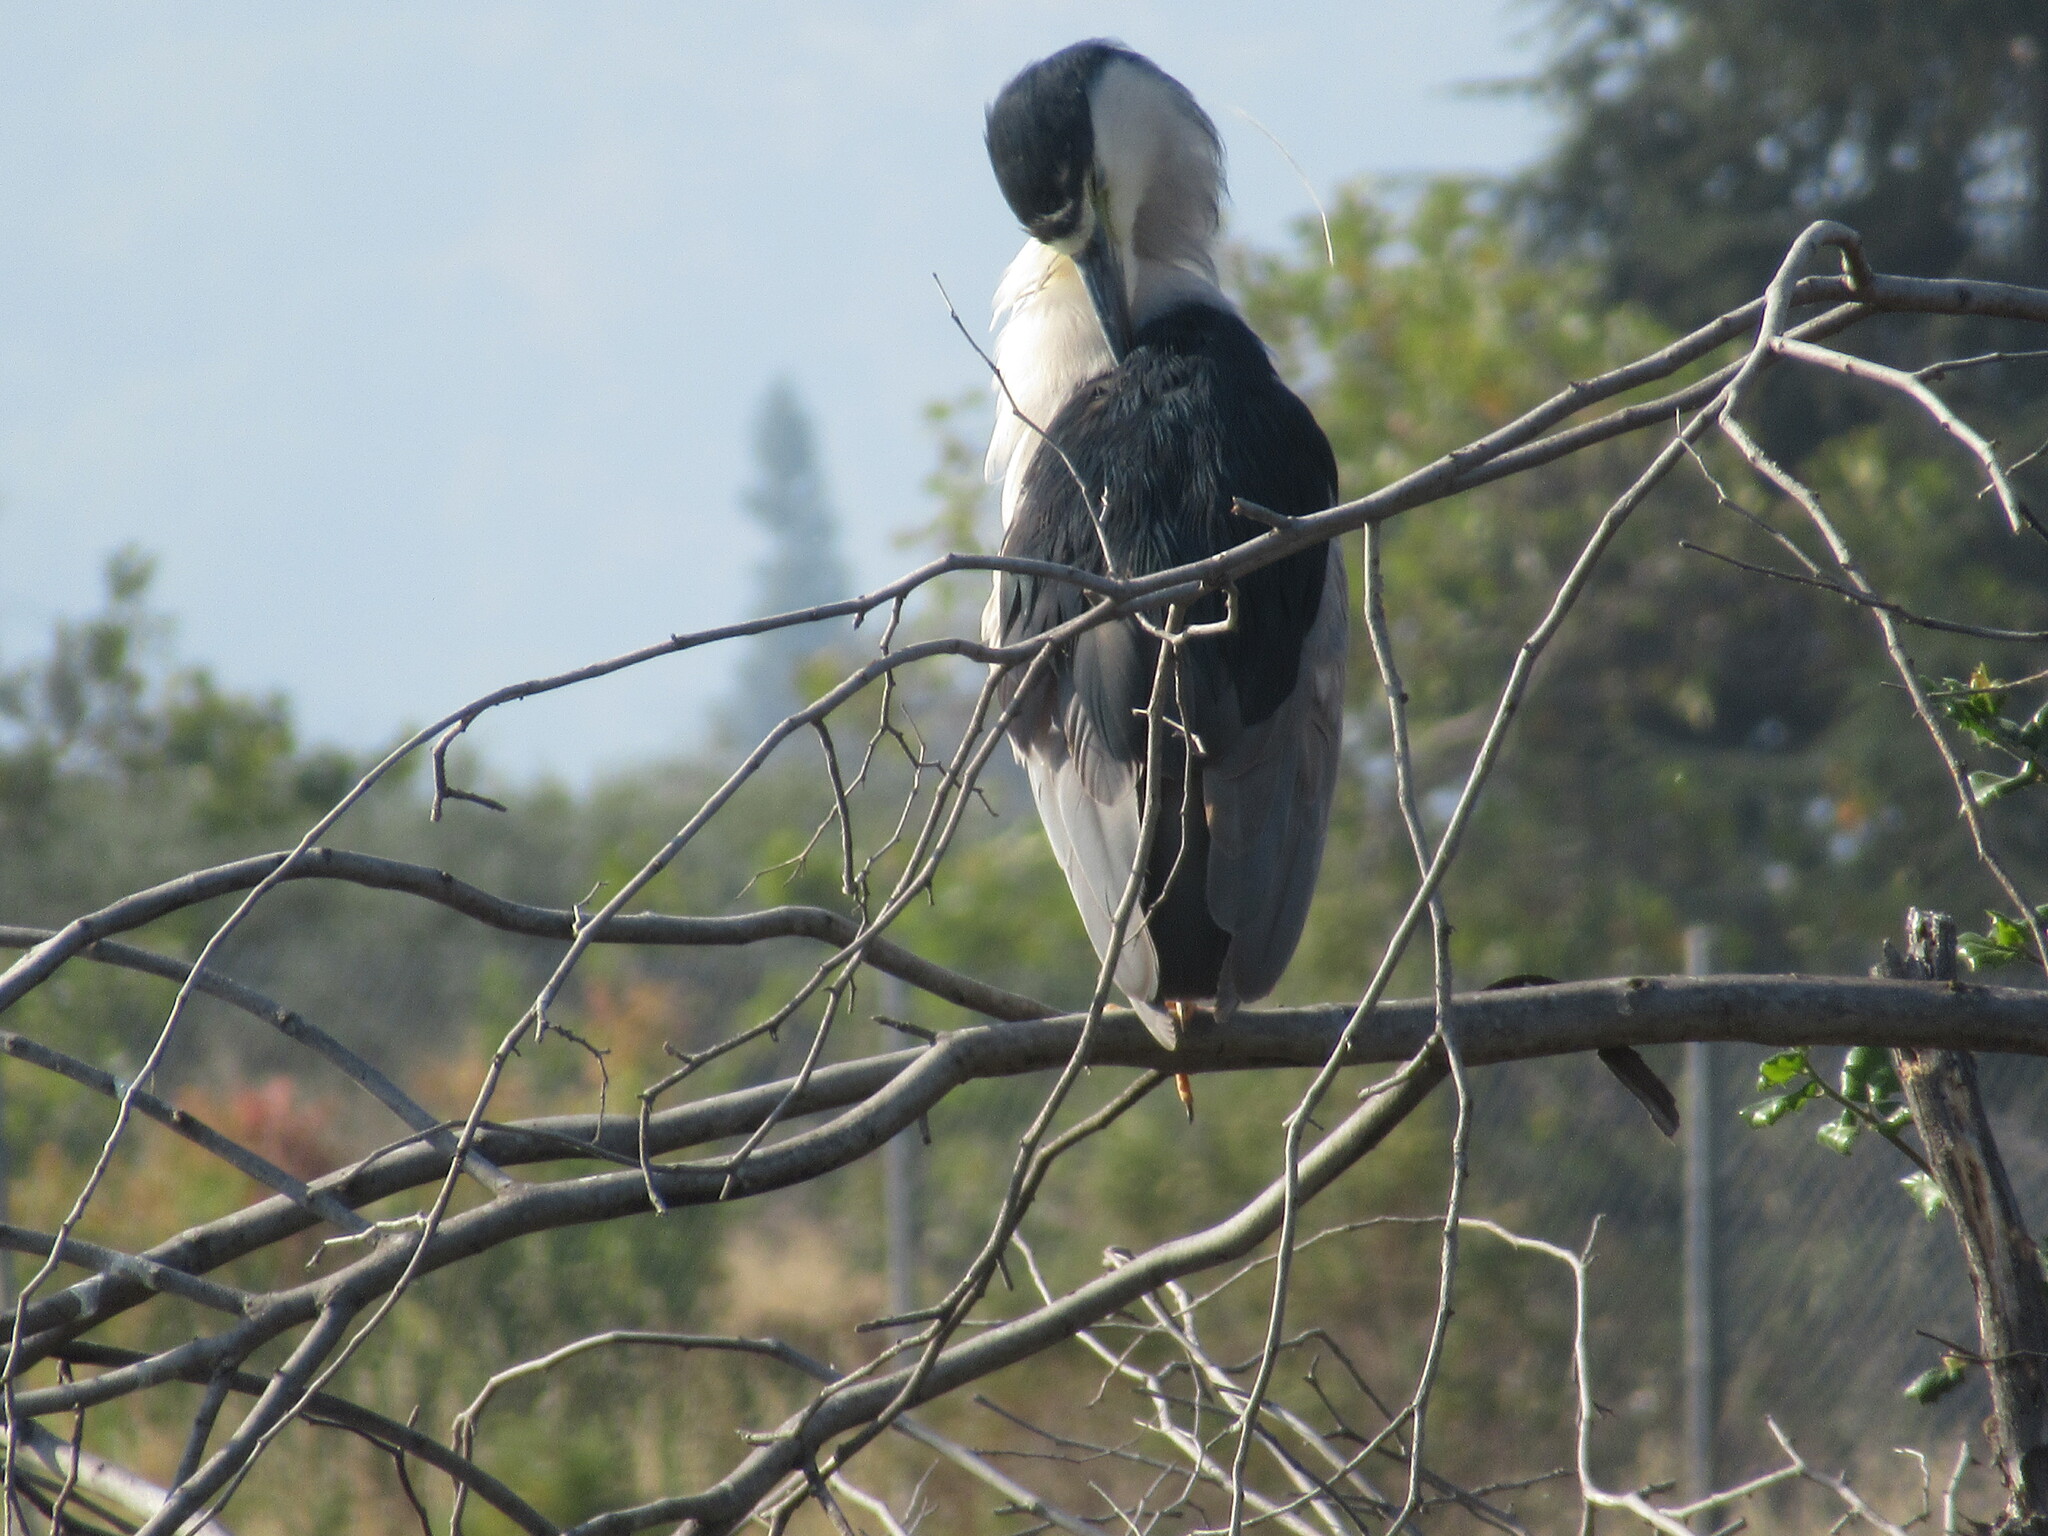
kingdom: Animalia
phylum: Chordata
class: Aves
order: Pelecaniformes
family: Ardeidae
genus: Nycticorax
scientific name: Nycticorax nycticorax
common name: Black-crowned night heron
